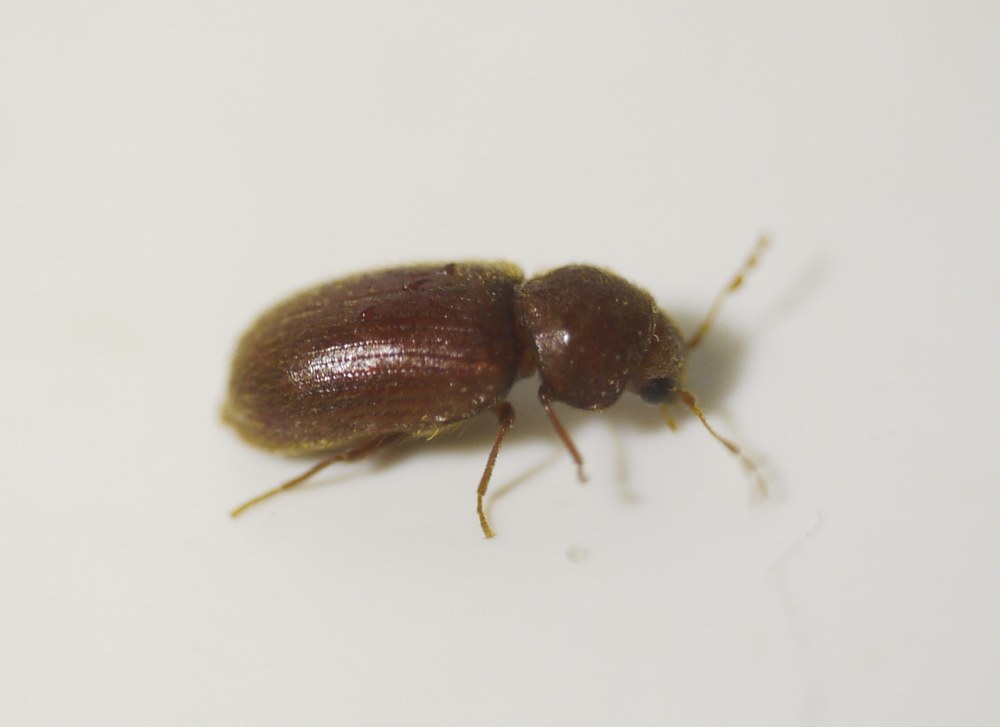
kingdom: Animalia
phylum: Arthropoda
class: Insecta
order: Coleoptera
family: Anobiidae
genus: Stegobium
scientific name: Stegobium paniceum
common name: Drugstore beetle
